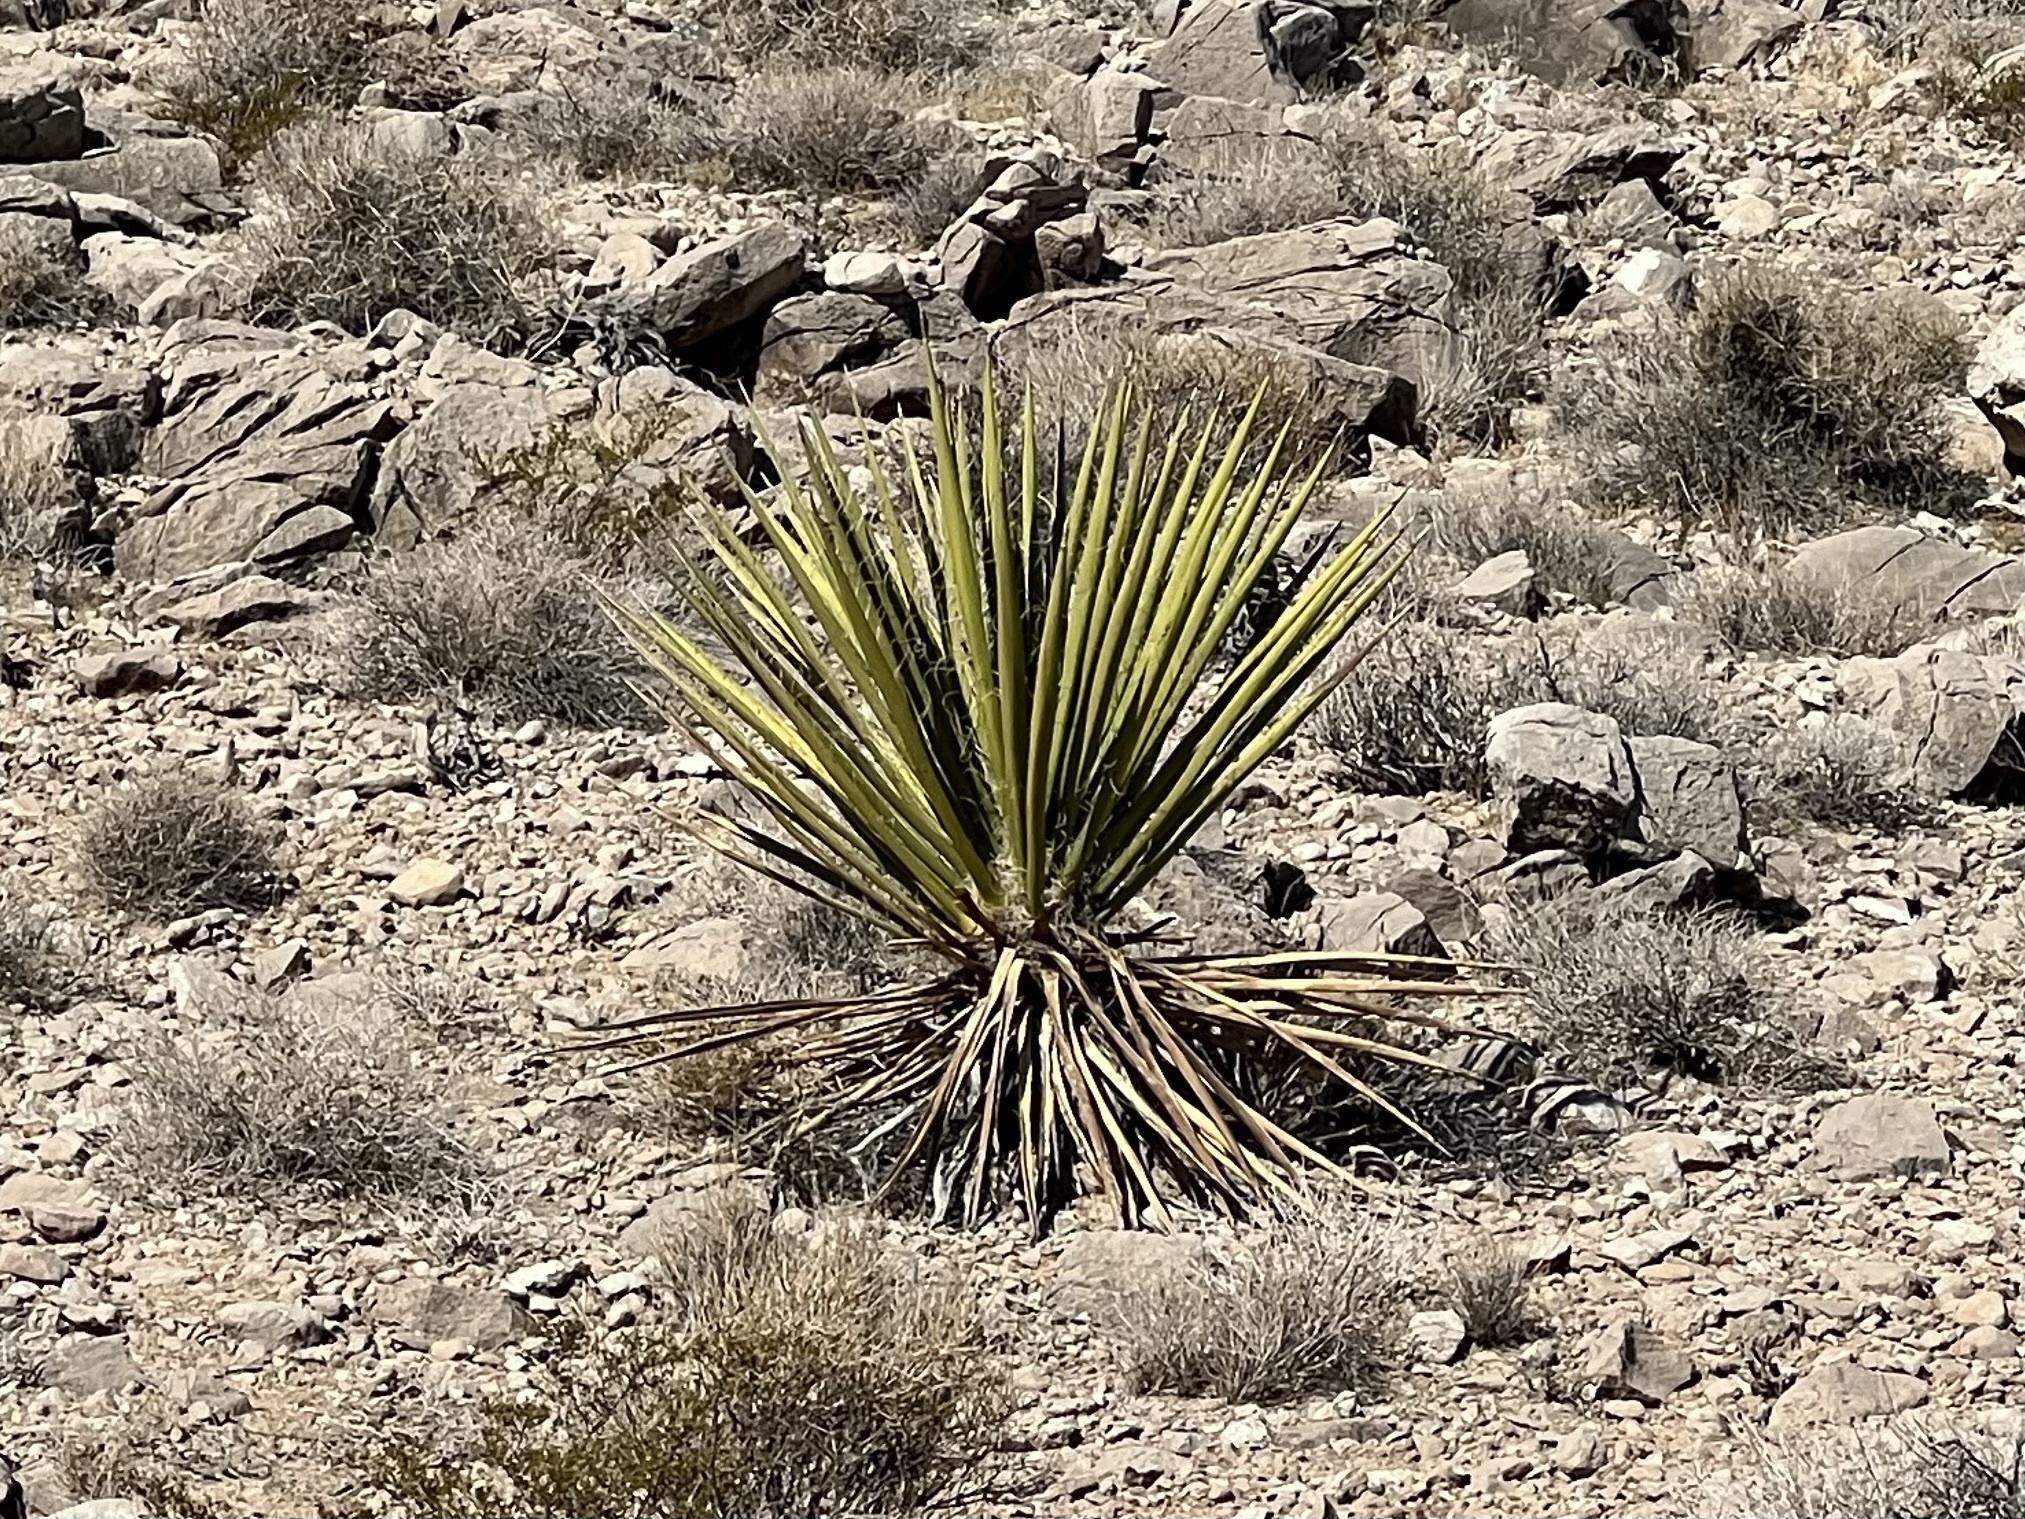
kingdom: Plantae
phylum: Tracheophyta
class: Liliopsida
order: Asparagales
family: Asparagaceae
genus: Yucca
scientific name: Yucca schidigera
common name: Mojave yucca
